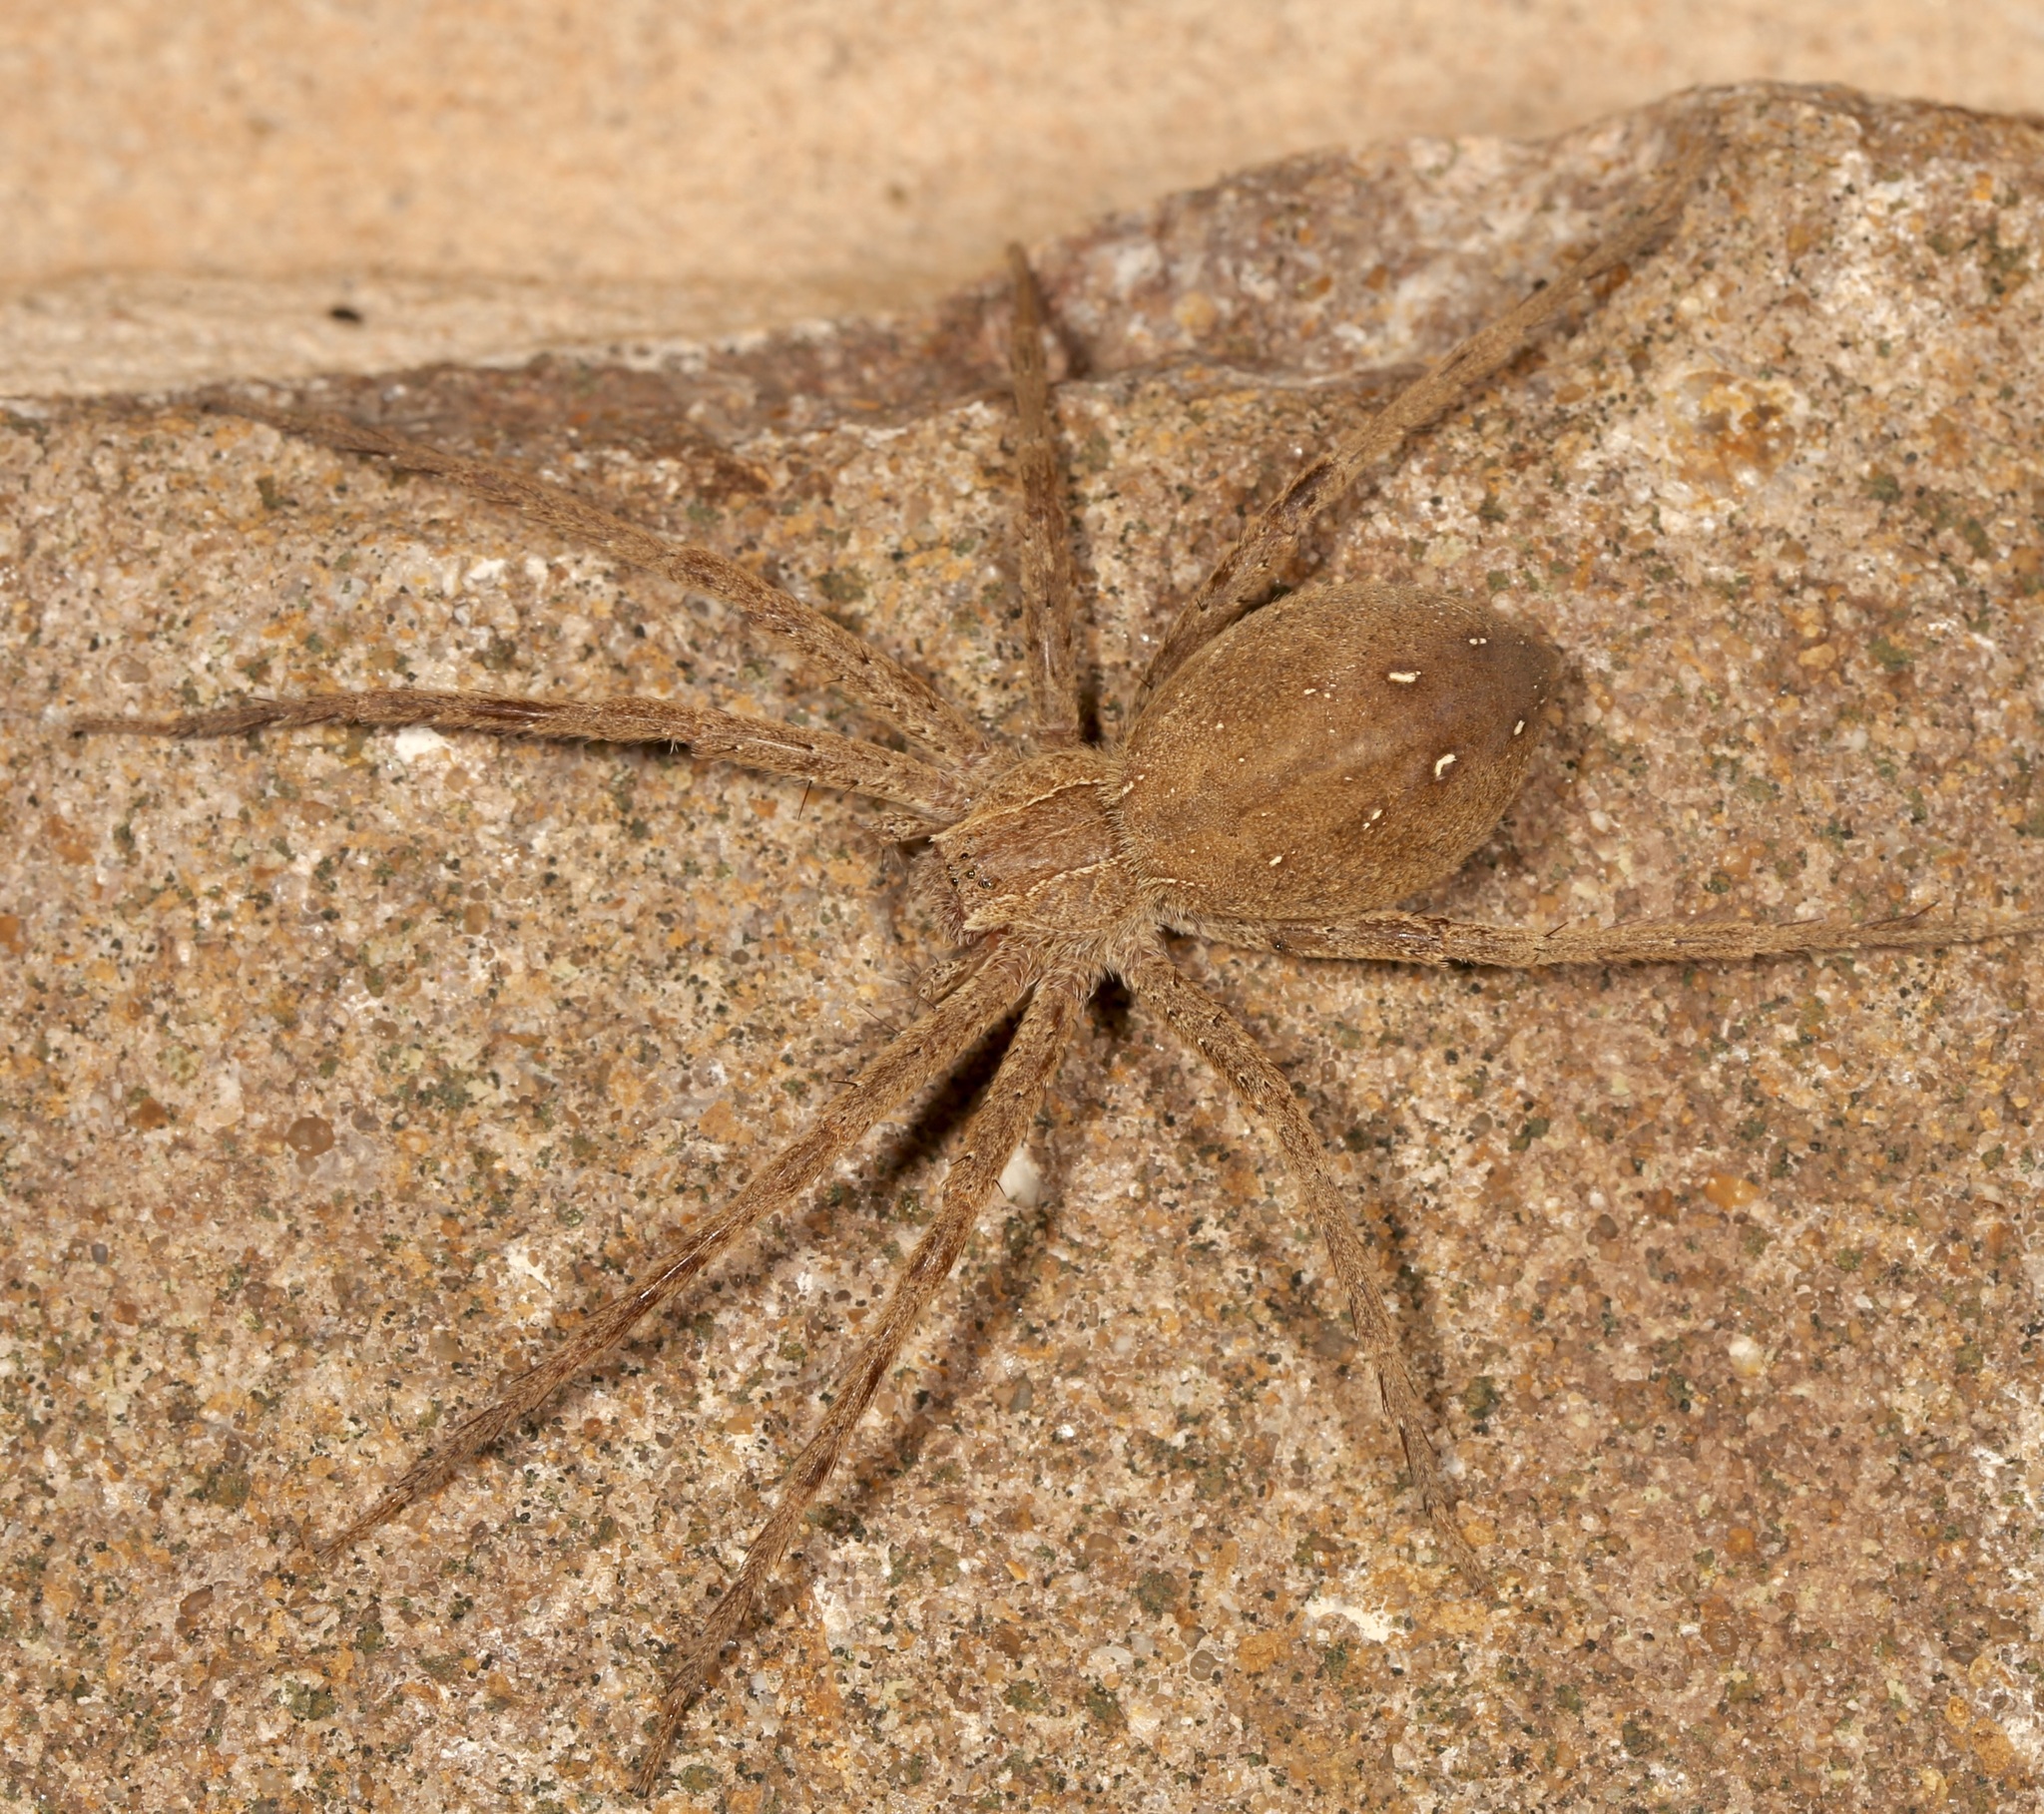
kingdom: Animalia
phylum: Arthropoda
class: Arachnida
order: Araneae
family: Pisauridae
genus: Pisaurina
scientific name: Pisaurina mira
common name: American nursery web spider
